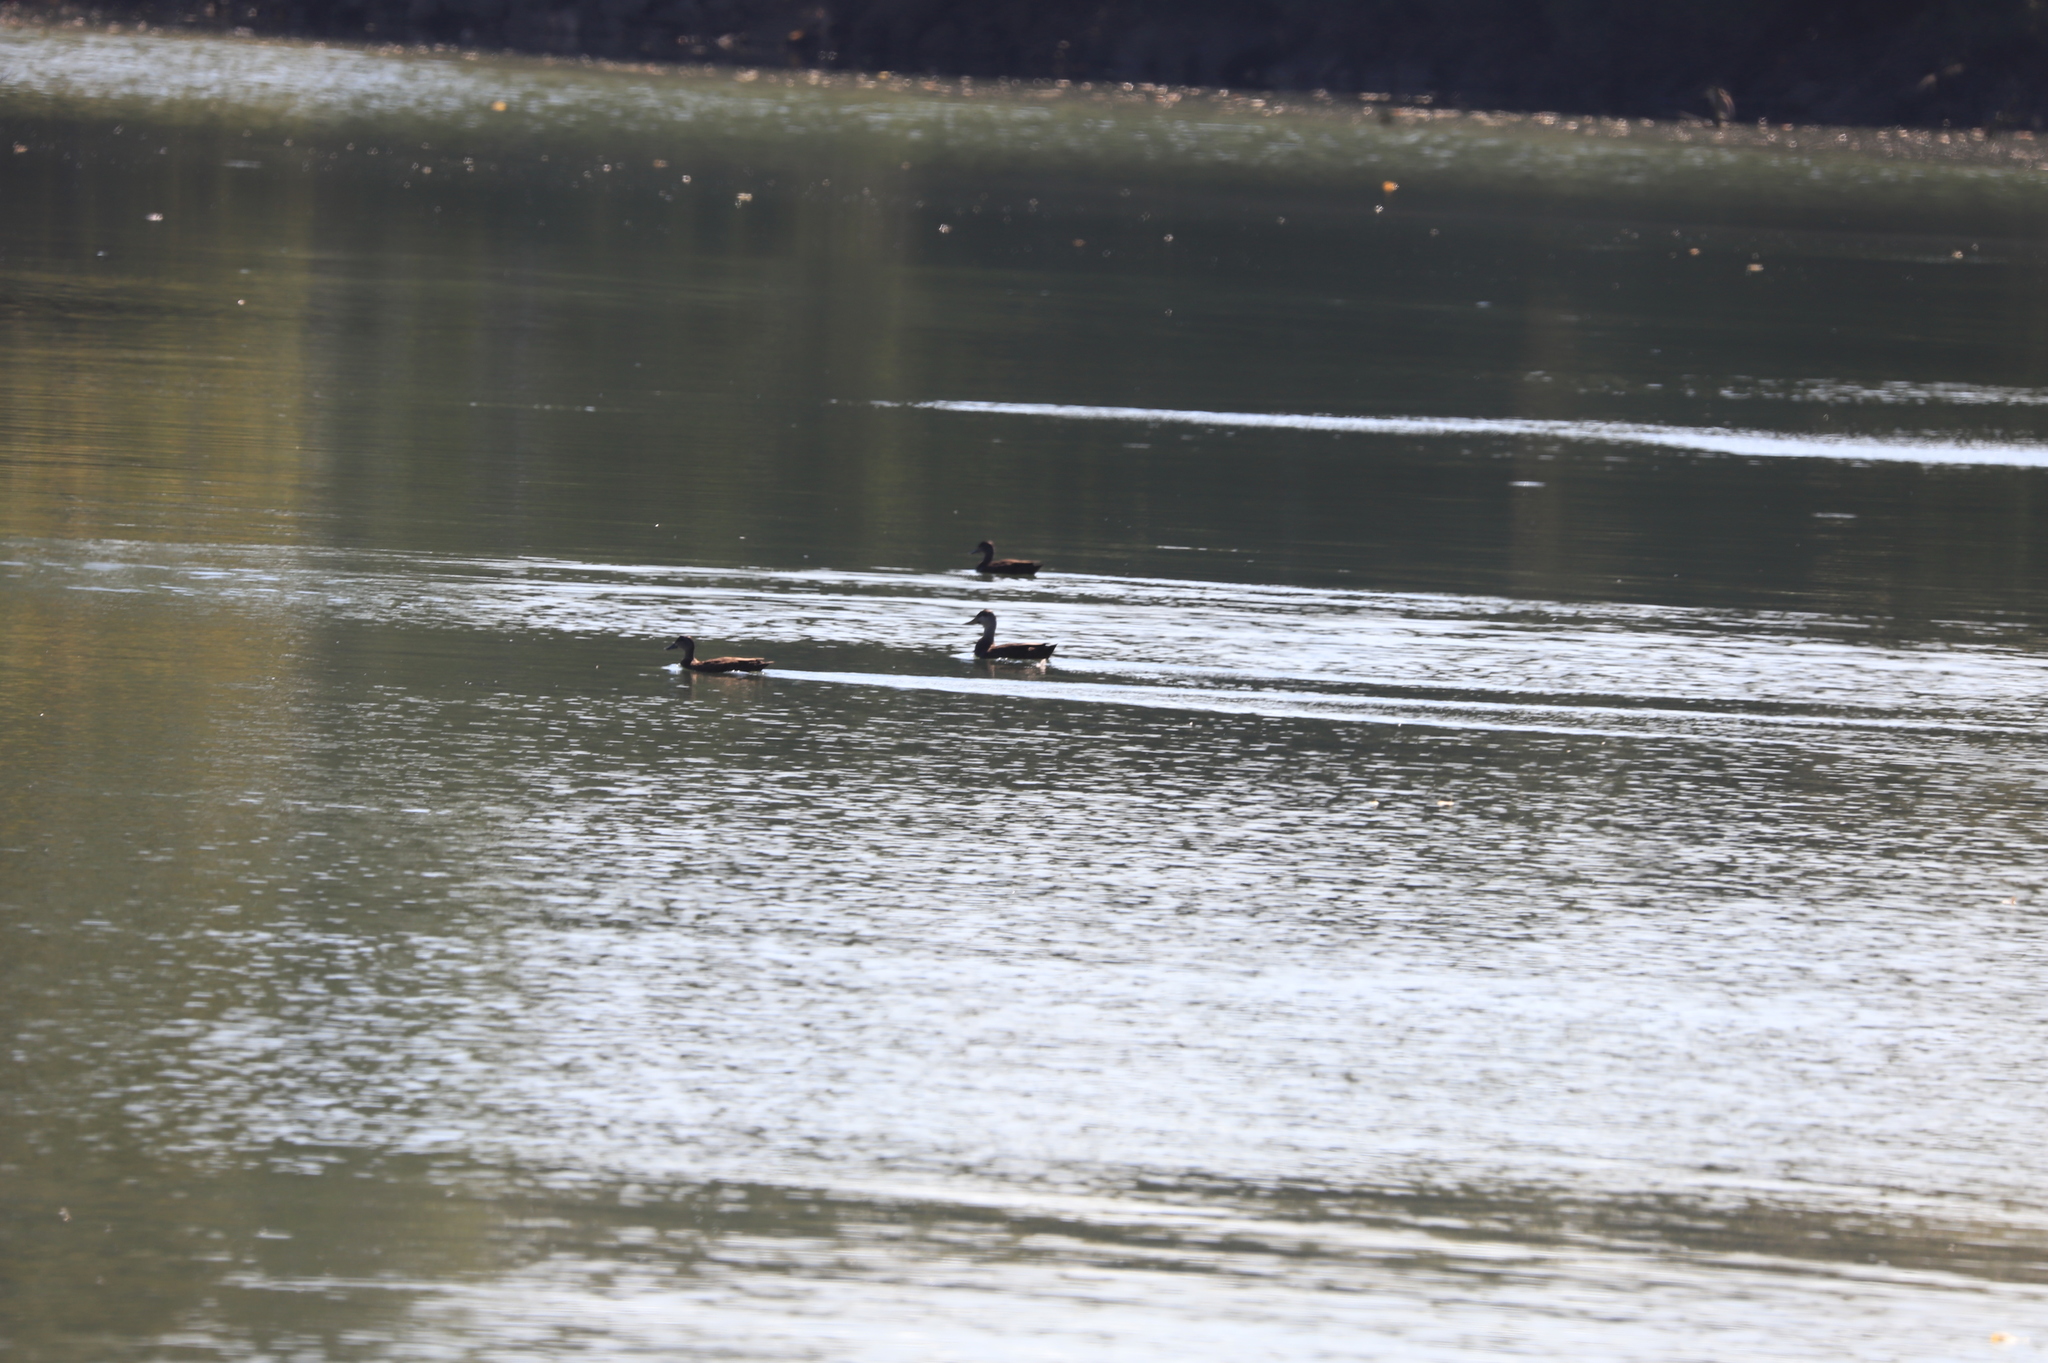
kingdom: Animalia
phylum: Chordata
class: Aves
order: Anseriformes
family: Anatidae
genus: Anas
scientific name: Anas rubripes
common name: American black duck
